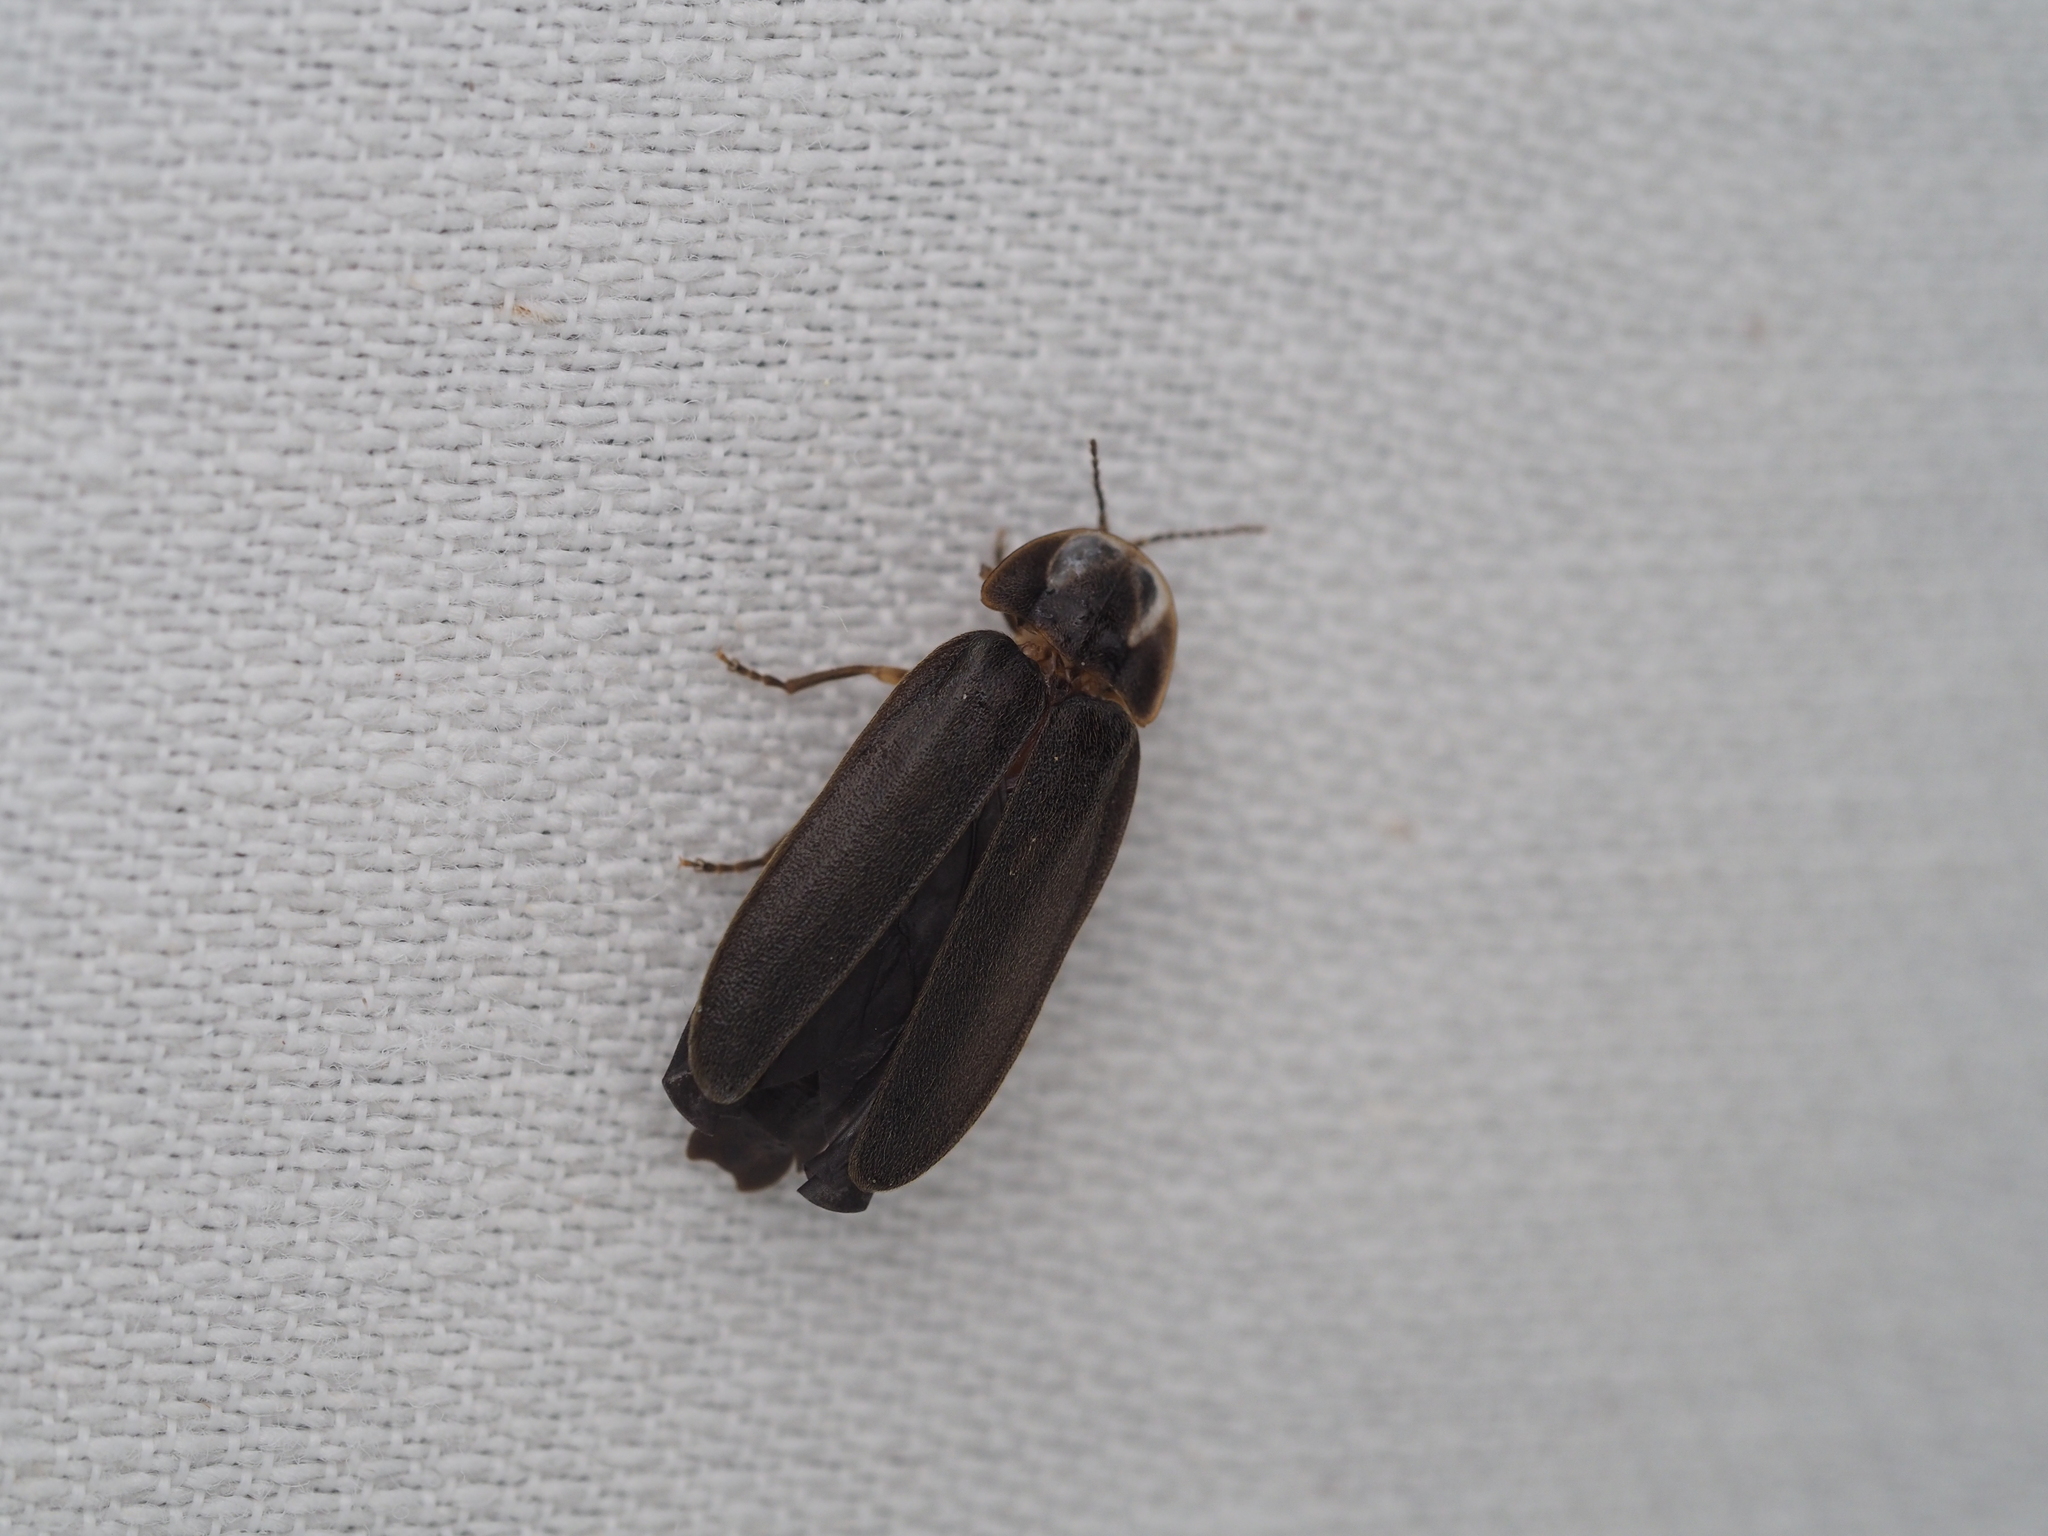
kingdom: Animalia
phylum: Arthropoda
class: Insecta
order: Coleoptera
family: Lampyridae
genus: Lamprohiza
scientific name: Lamprohiza splendidula
